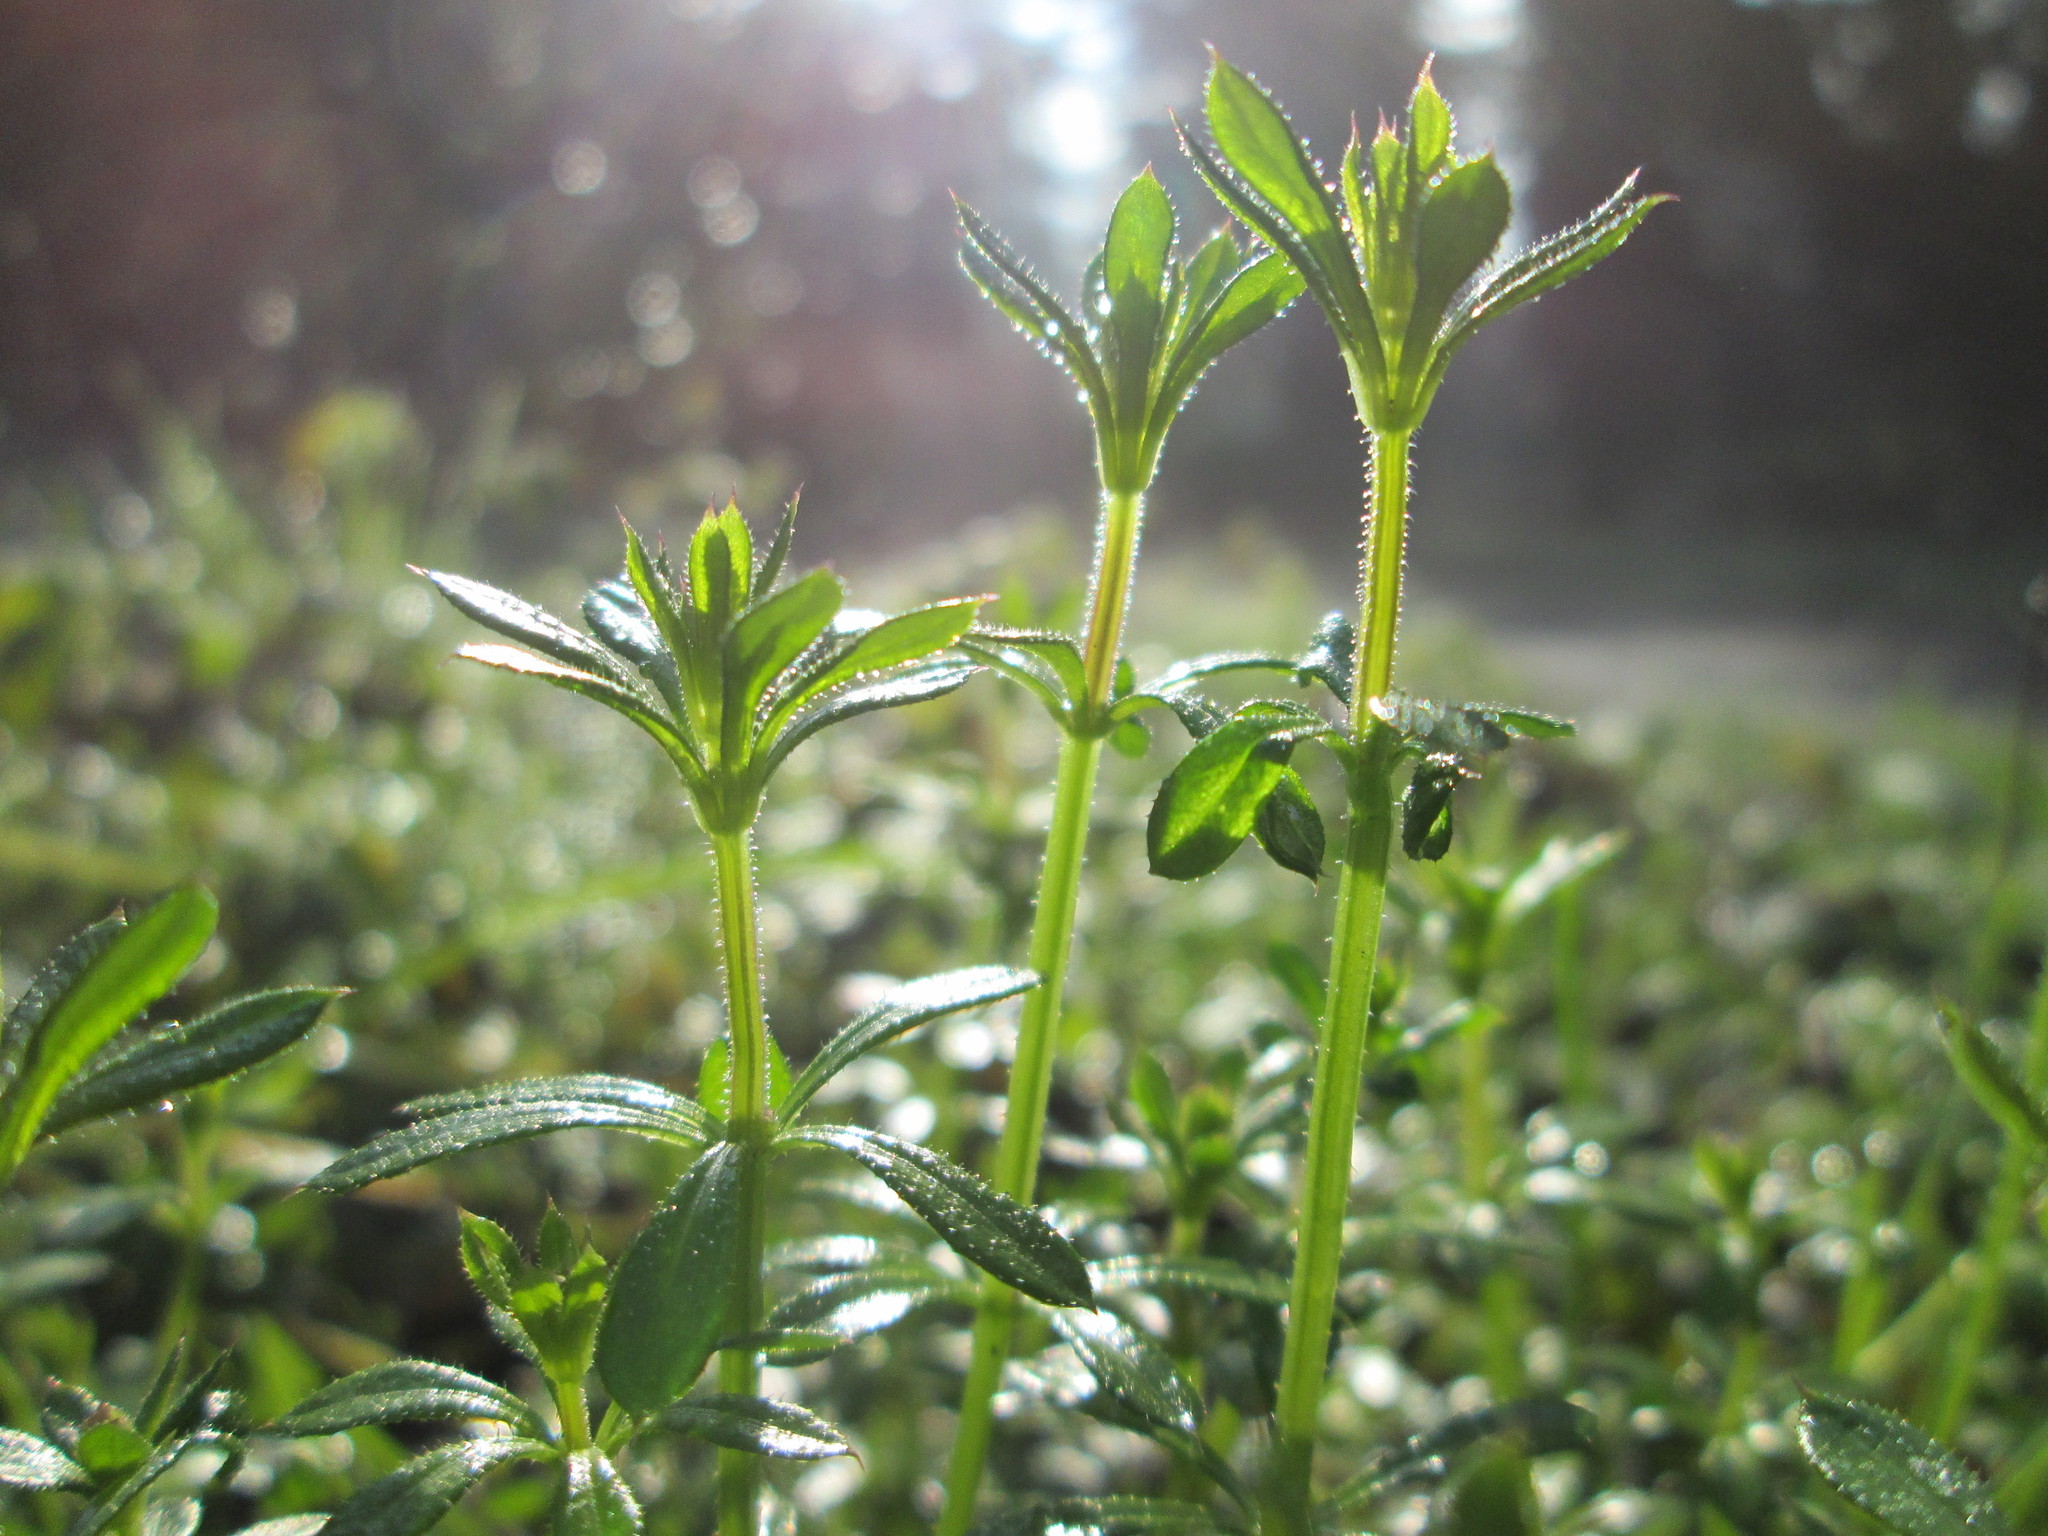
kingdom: Plantae
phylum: Tracheophyta
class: Magnoliopsida
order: Gentianales
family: Rubiaceae
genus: Galium
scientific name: Galium aparine
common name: Cleavers
